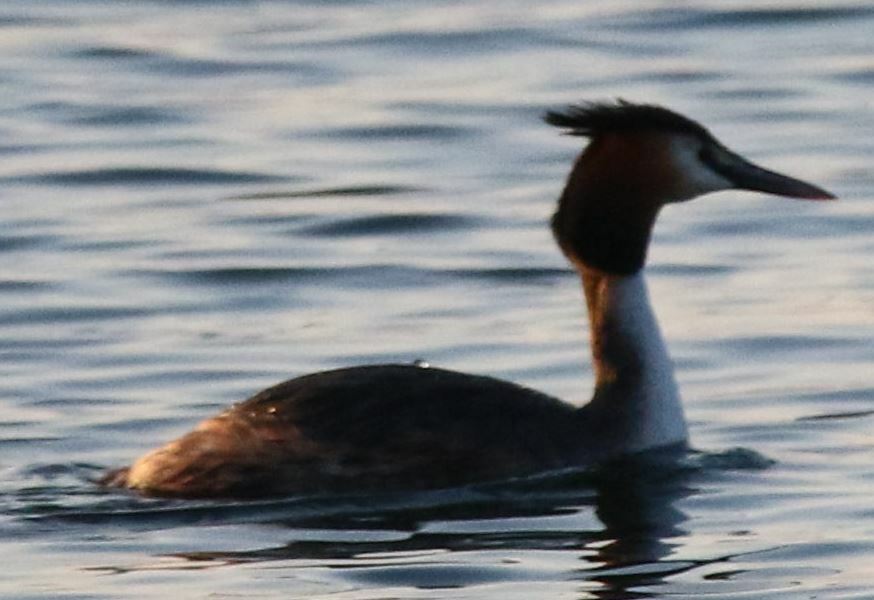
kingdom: Animalia
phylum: Chordata
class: Aves
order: Podicipediformes
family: Podicipedidae
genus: Podiceps
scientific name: Podiceps cristatus
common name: Great crested grebe
